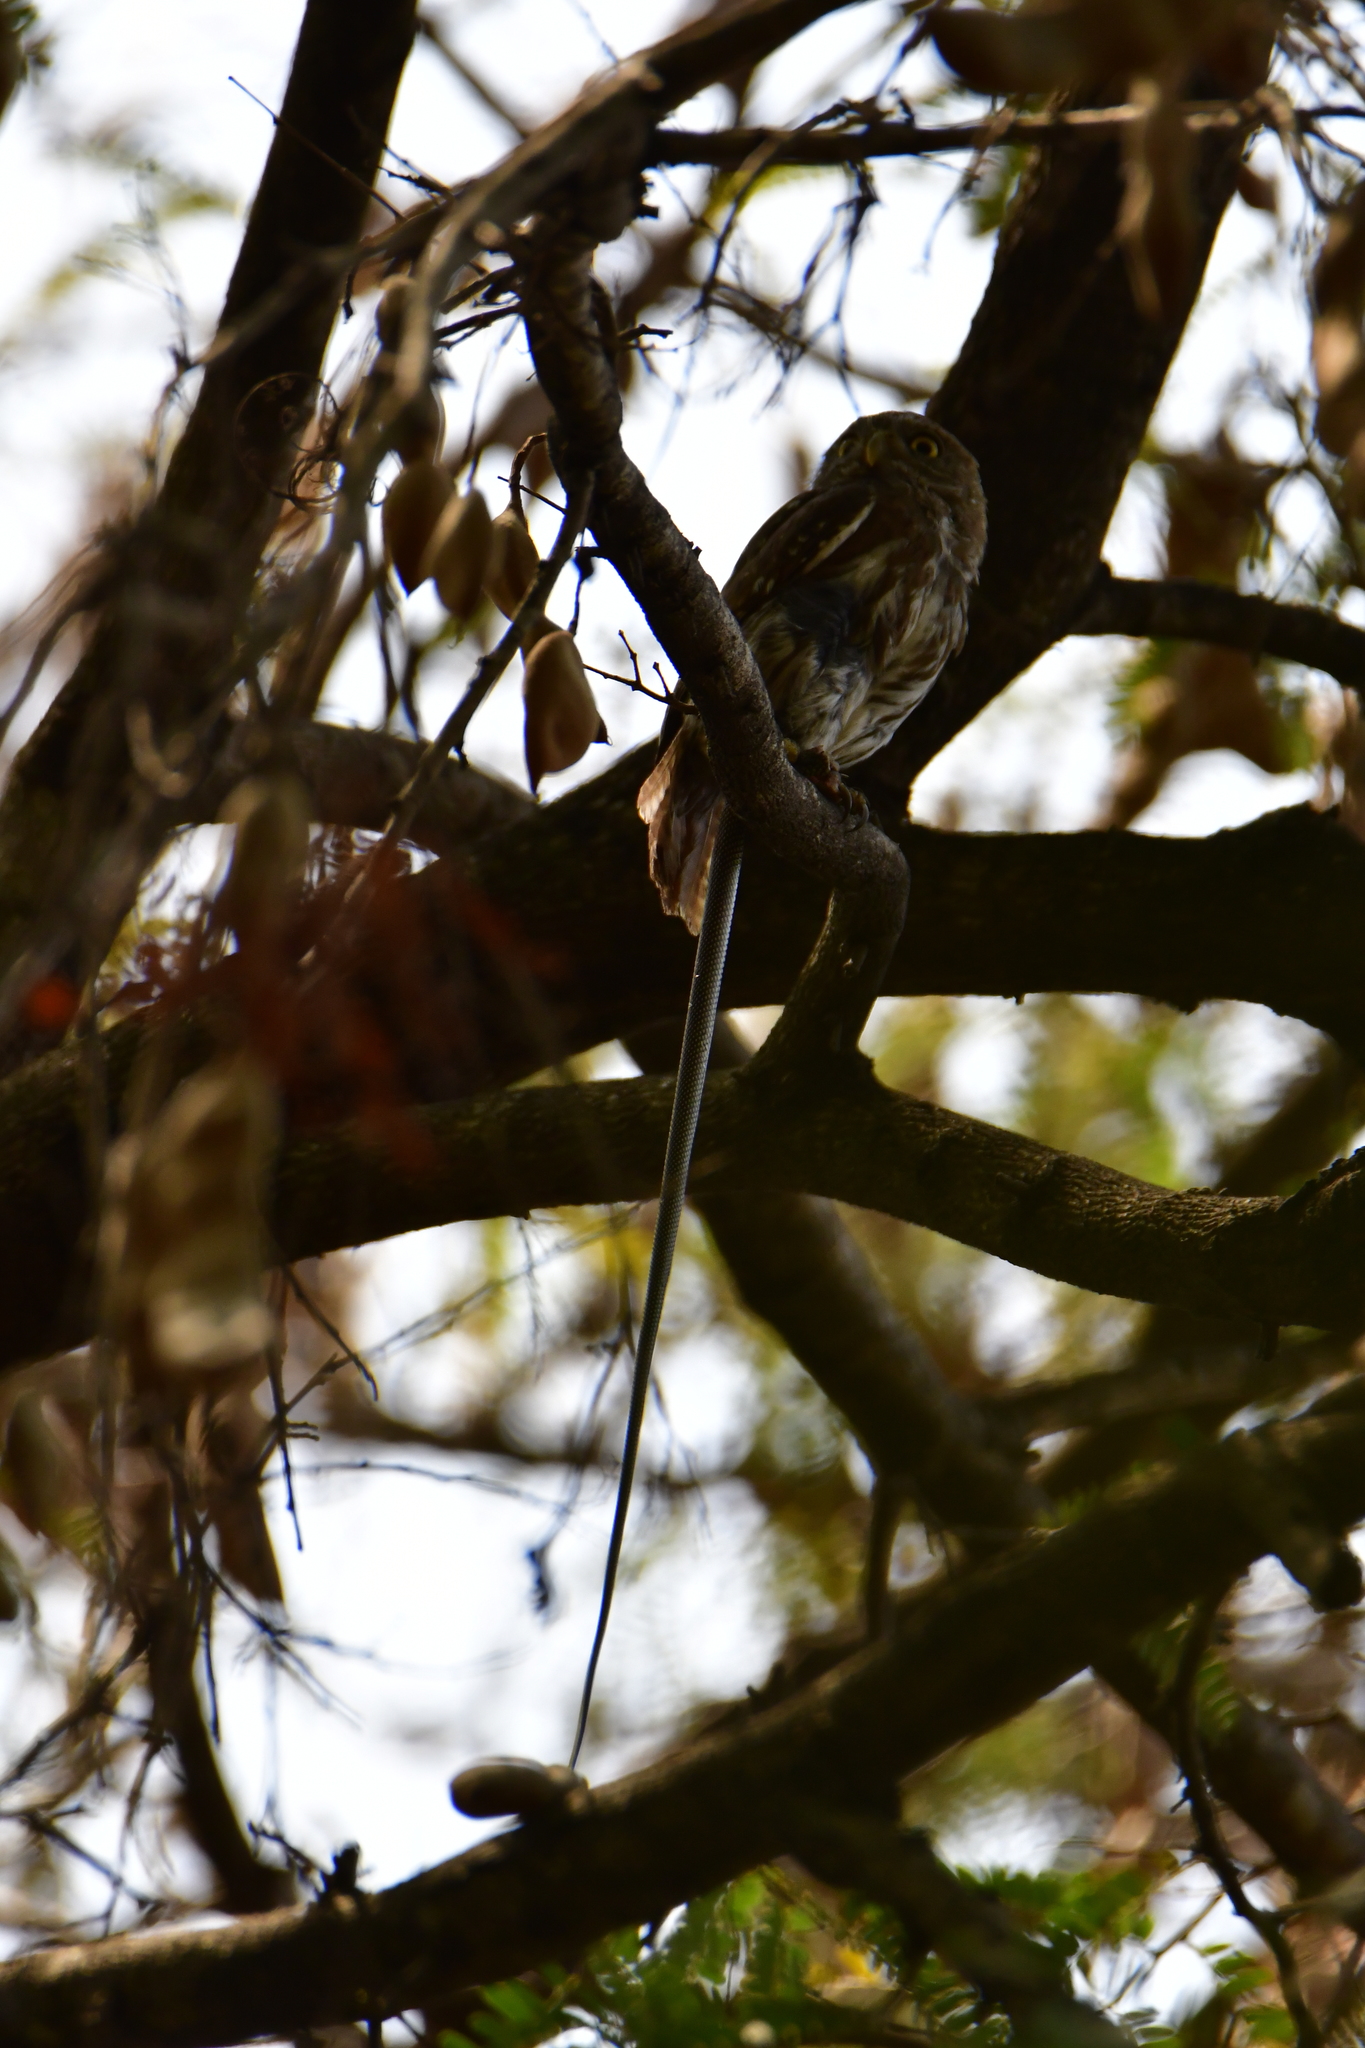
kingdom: Animalia
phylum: Chordata
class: Aves
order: Strigiformes
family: Strigidae
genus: Glaucidium
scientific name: Glaucidium brasilianum
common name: Ferruginous pygmy-owl
